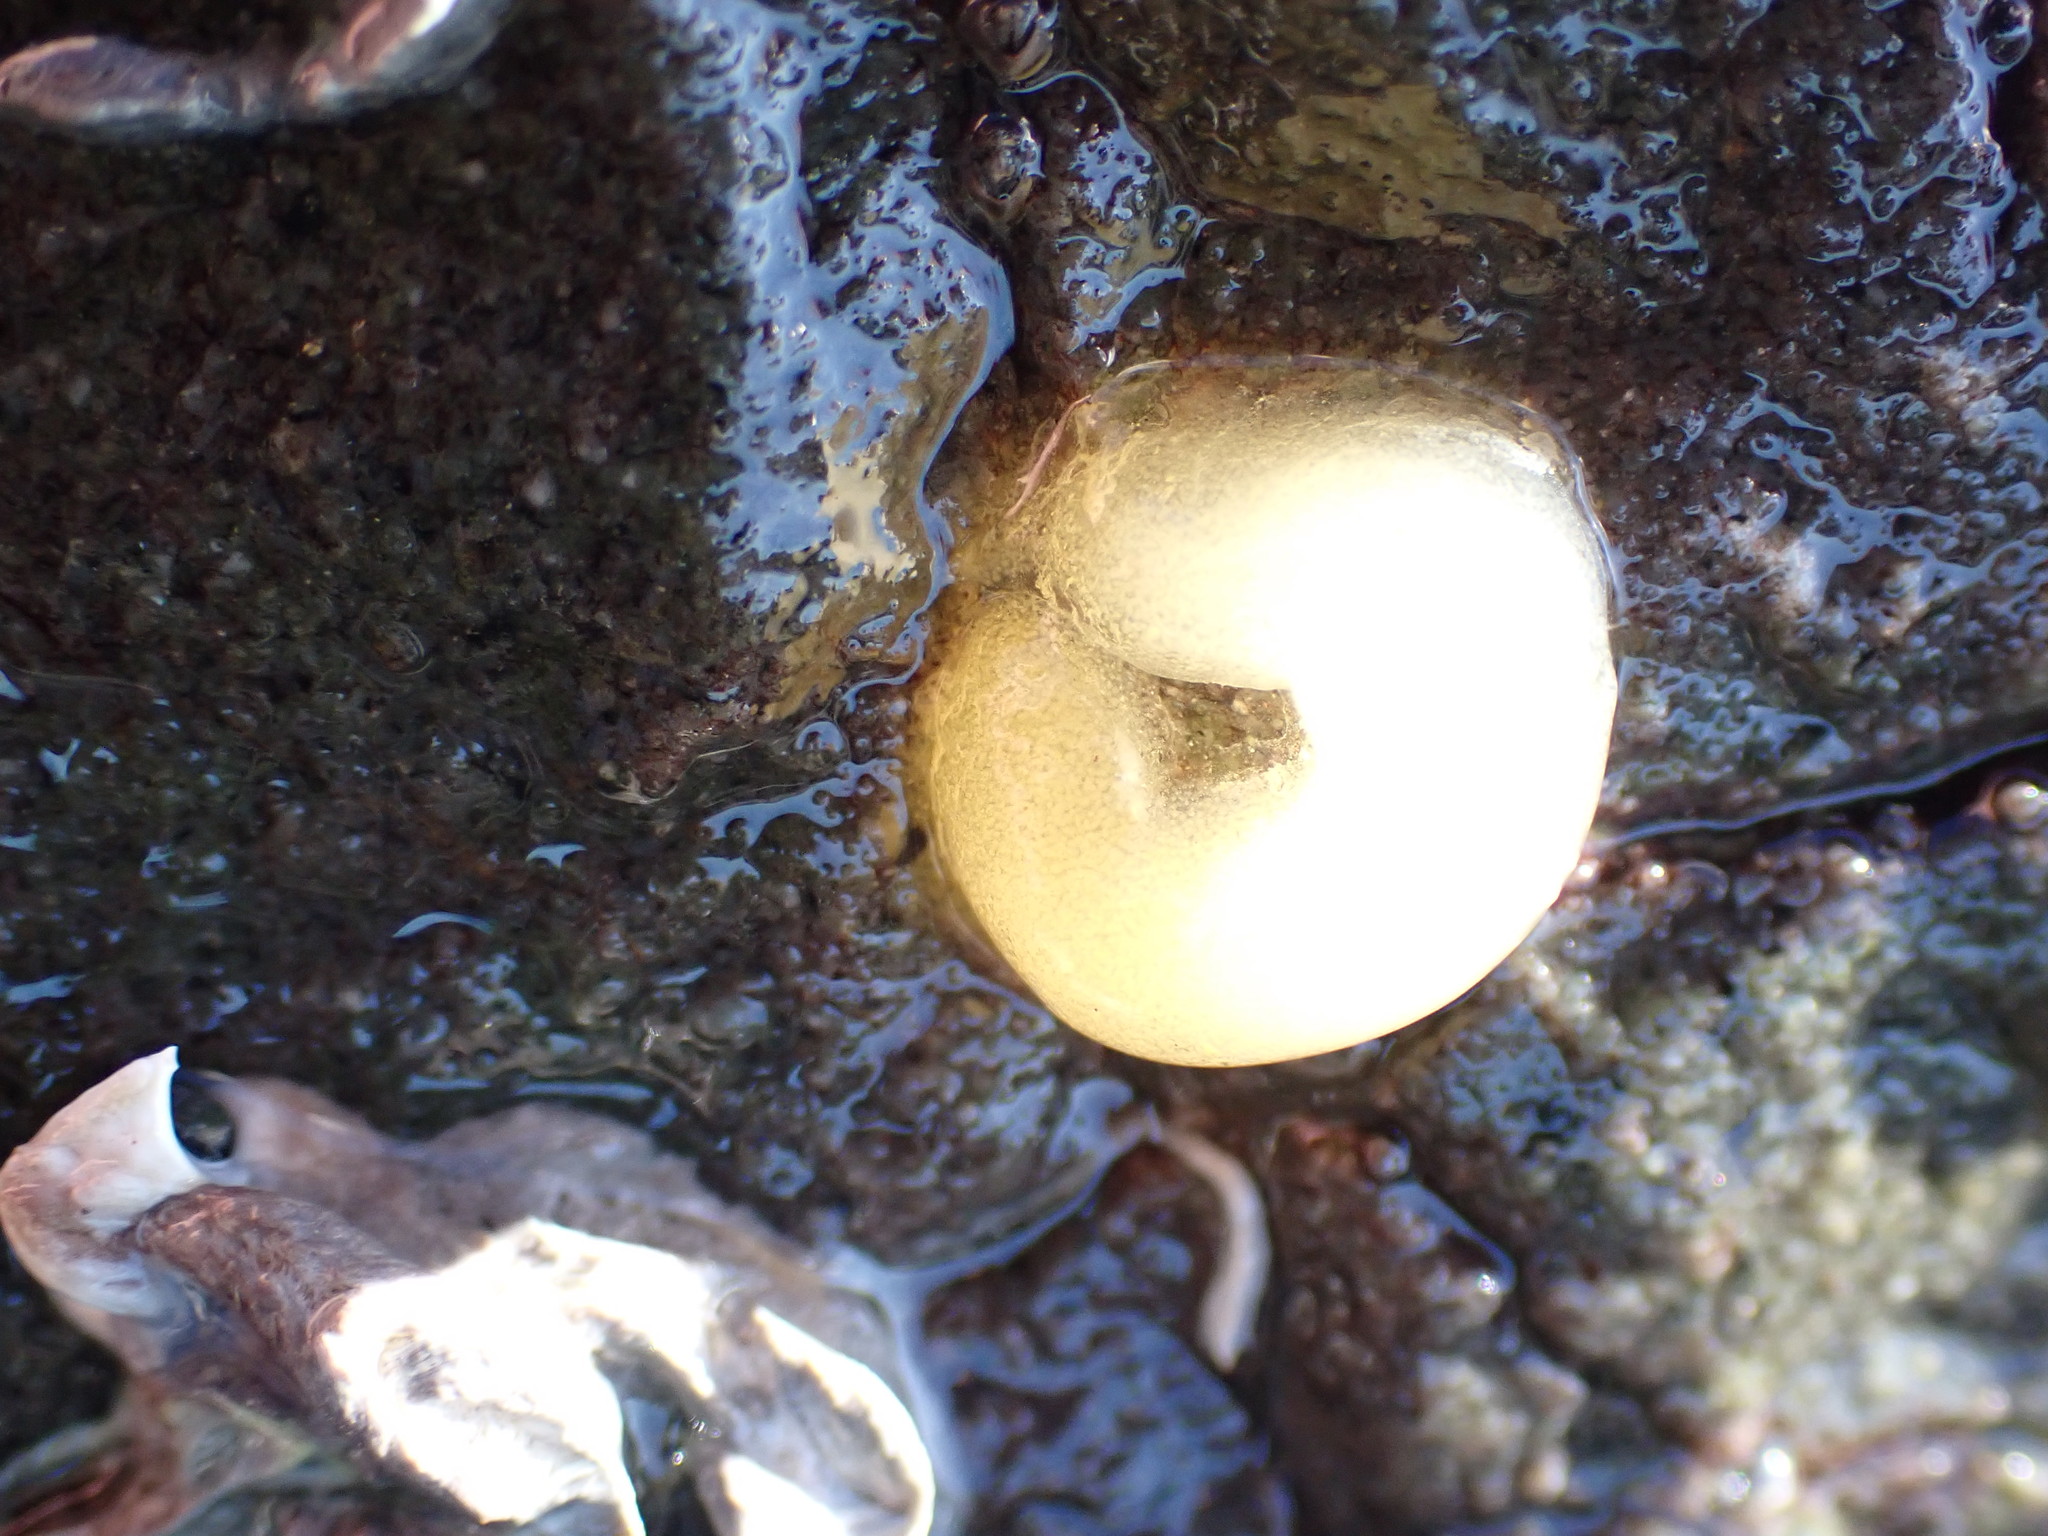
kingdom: Animalia
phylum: Mollusca
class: Gastropoda
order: Siphonariida
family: Siphonariidae
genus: Siphonaria
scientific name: Siphonaria
